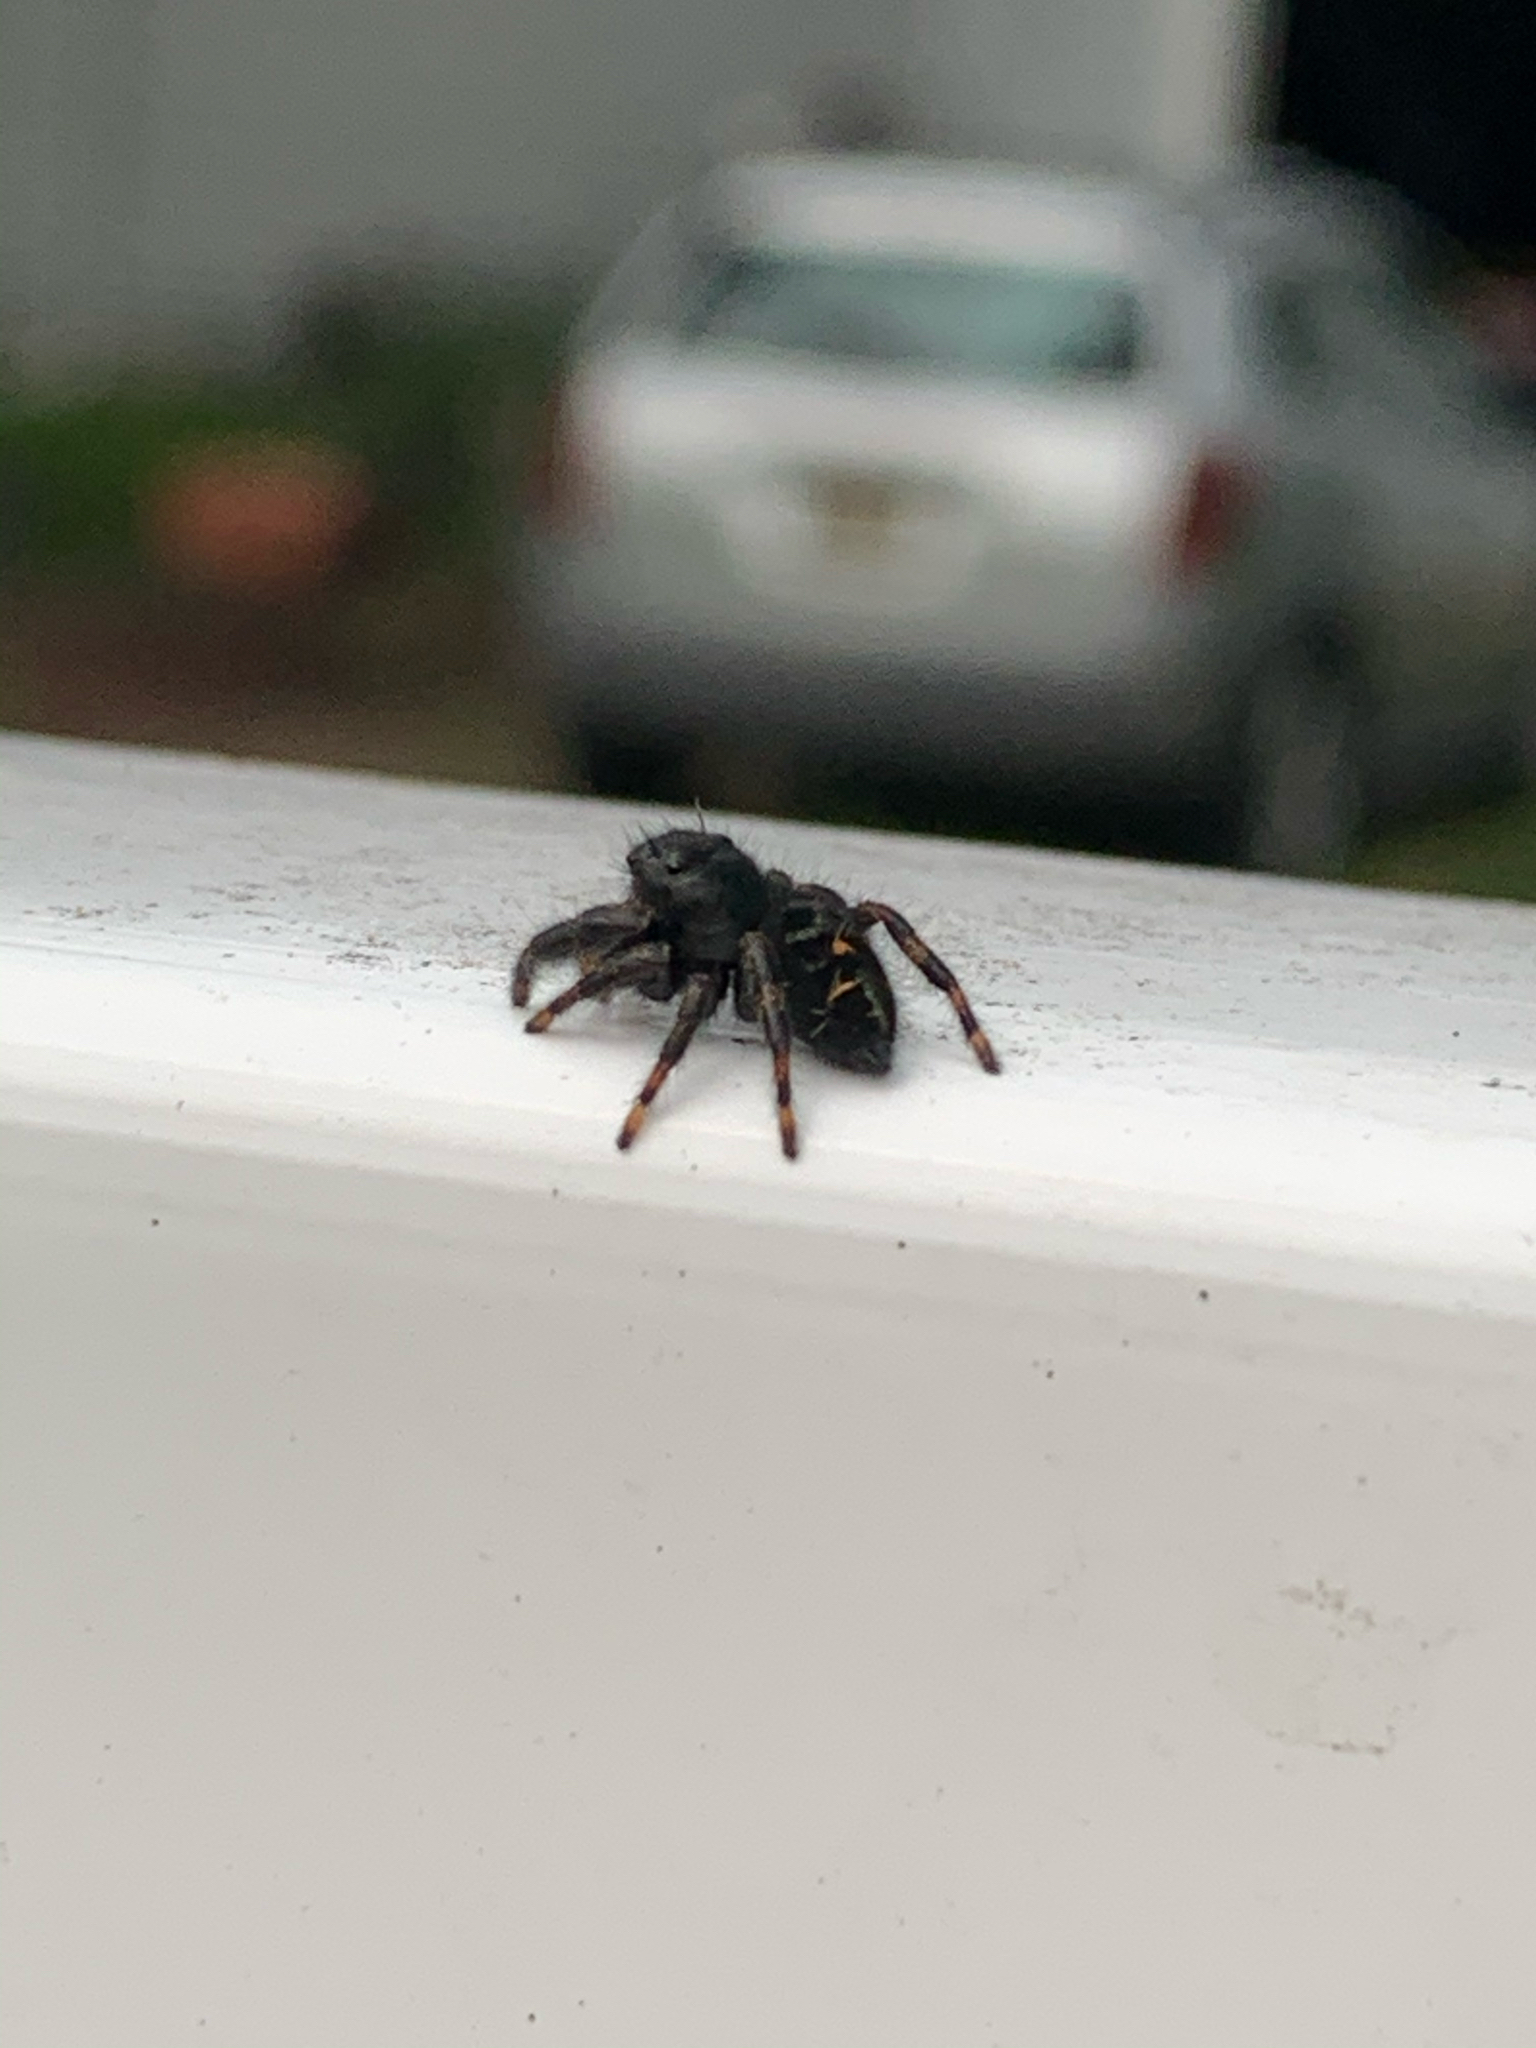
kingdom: Animalia
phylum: Arthropoda
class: Arachnida
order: Araneae
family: Salticidae
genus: Phidippus
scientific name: Phidippus audax
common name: Bold jumper
